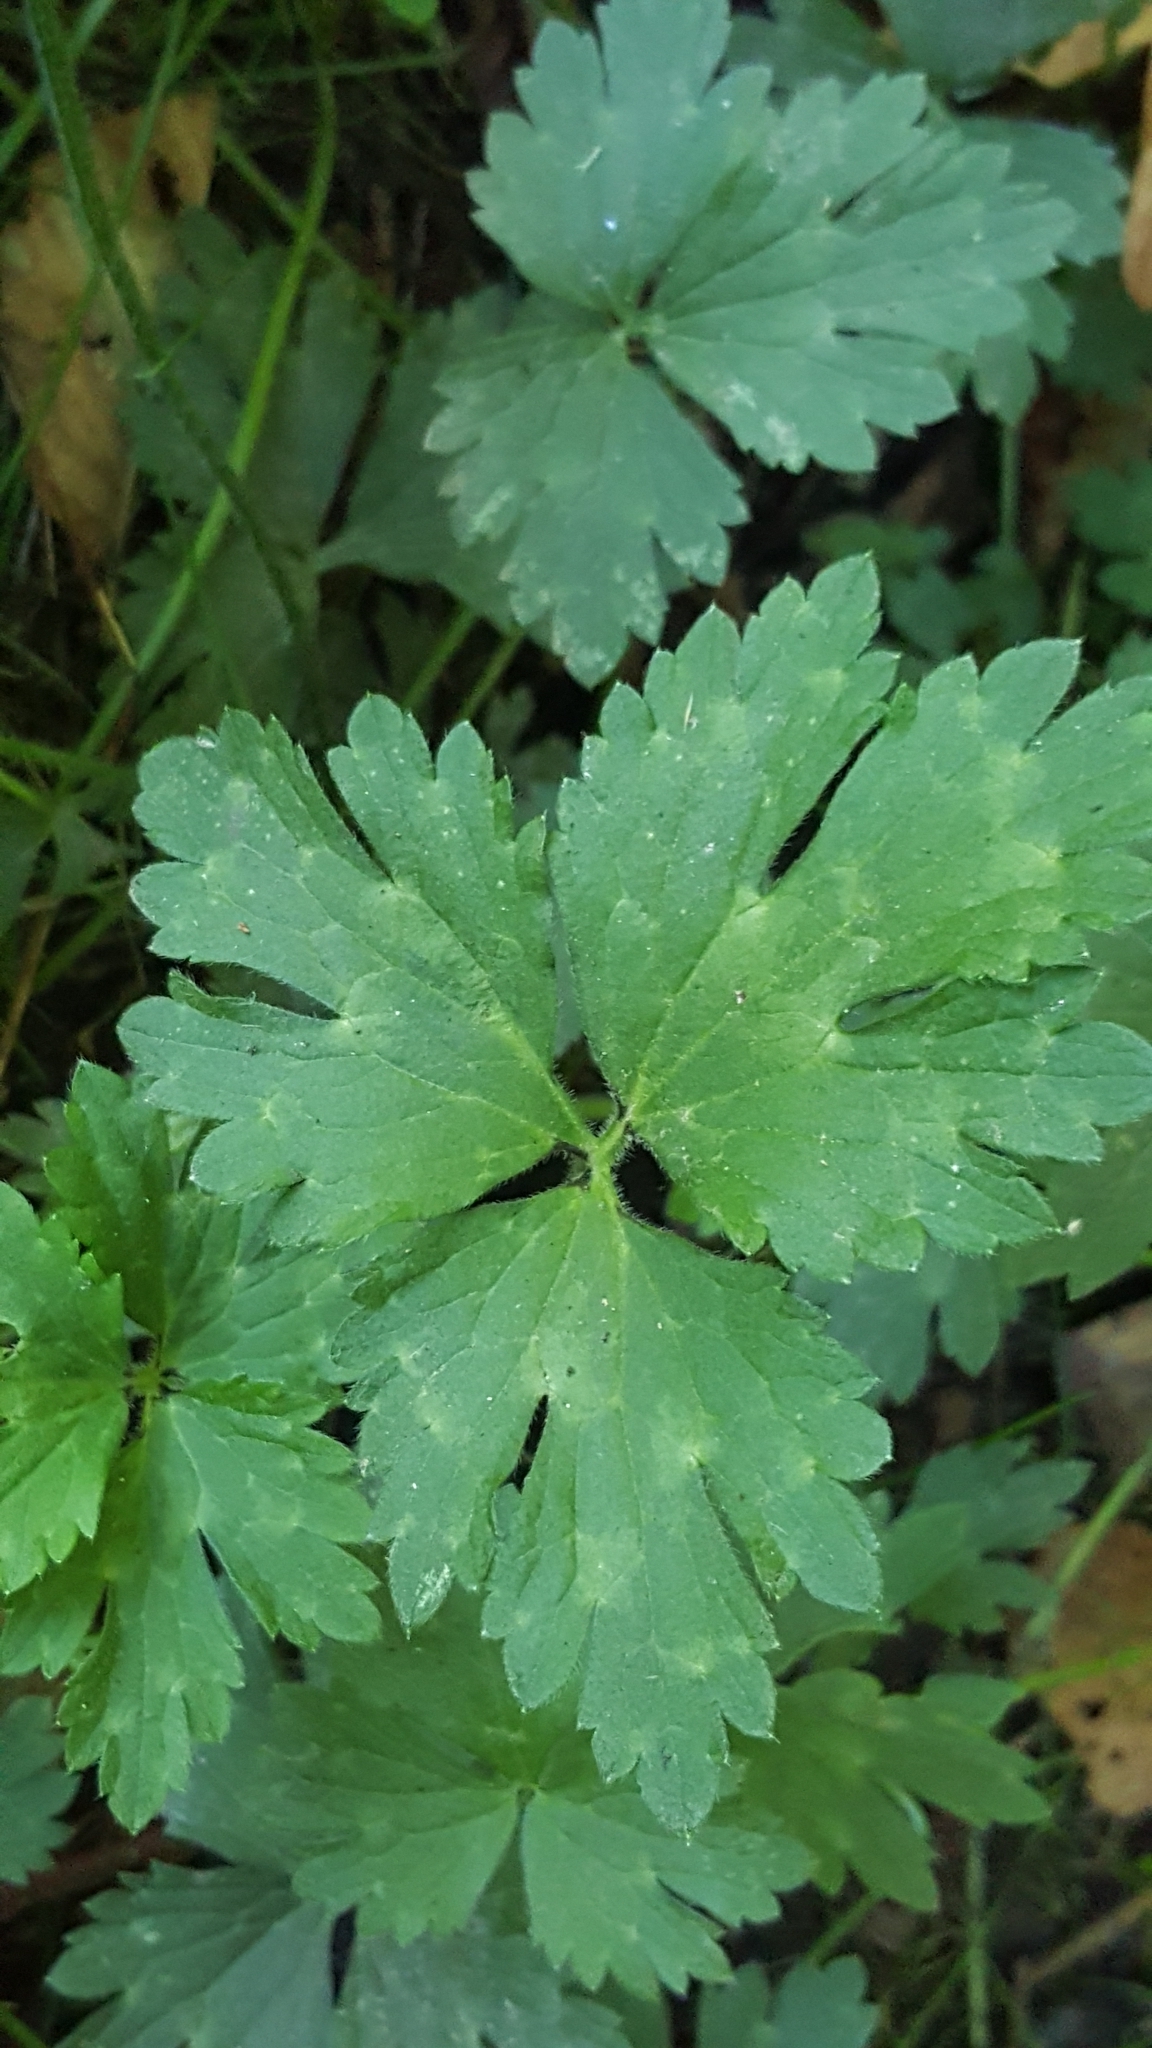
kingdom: Plantae
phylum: Tracheophyta
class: Magnoliopsida
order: Ranunculales
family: Ranunculaceae
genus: Ranunculus
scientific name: Ranunculus repens
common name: Creeping buttercup
